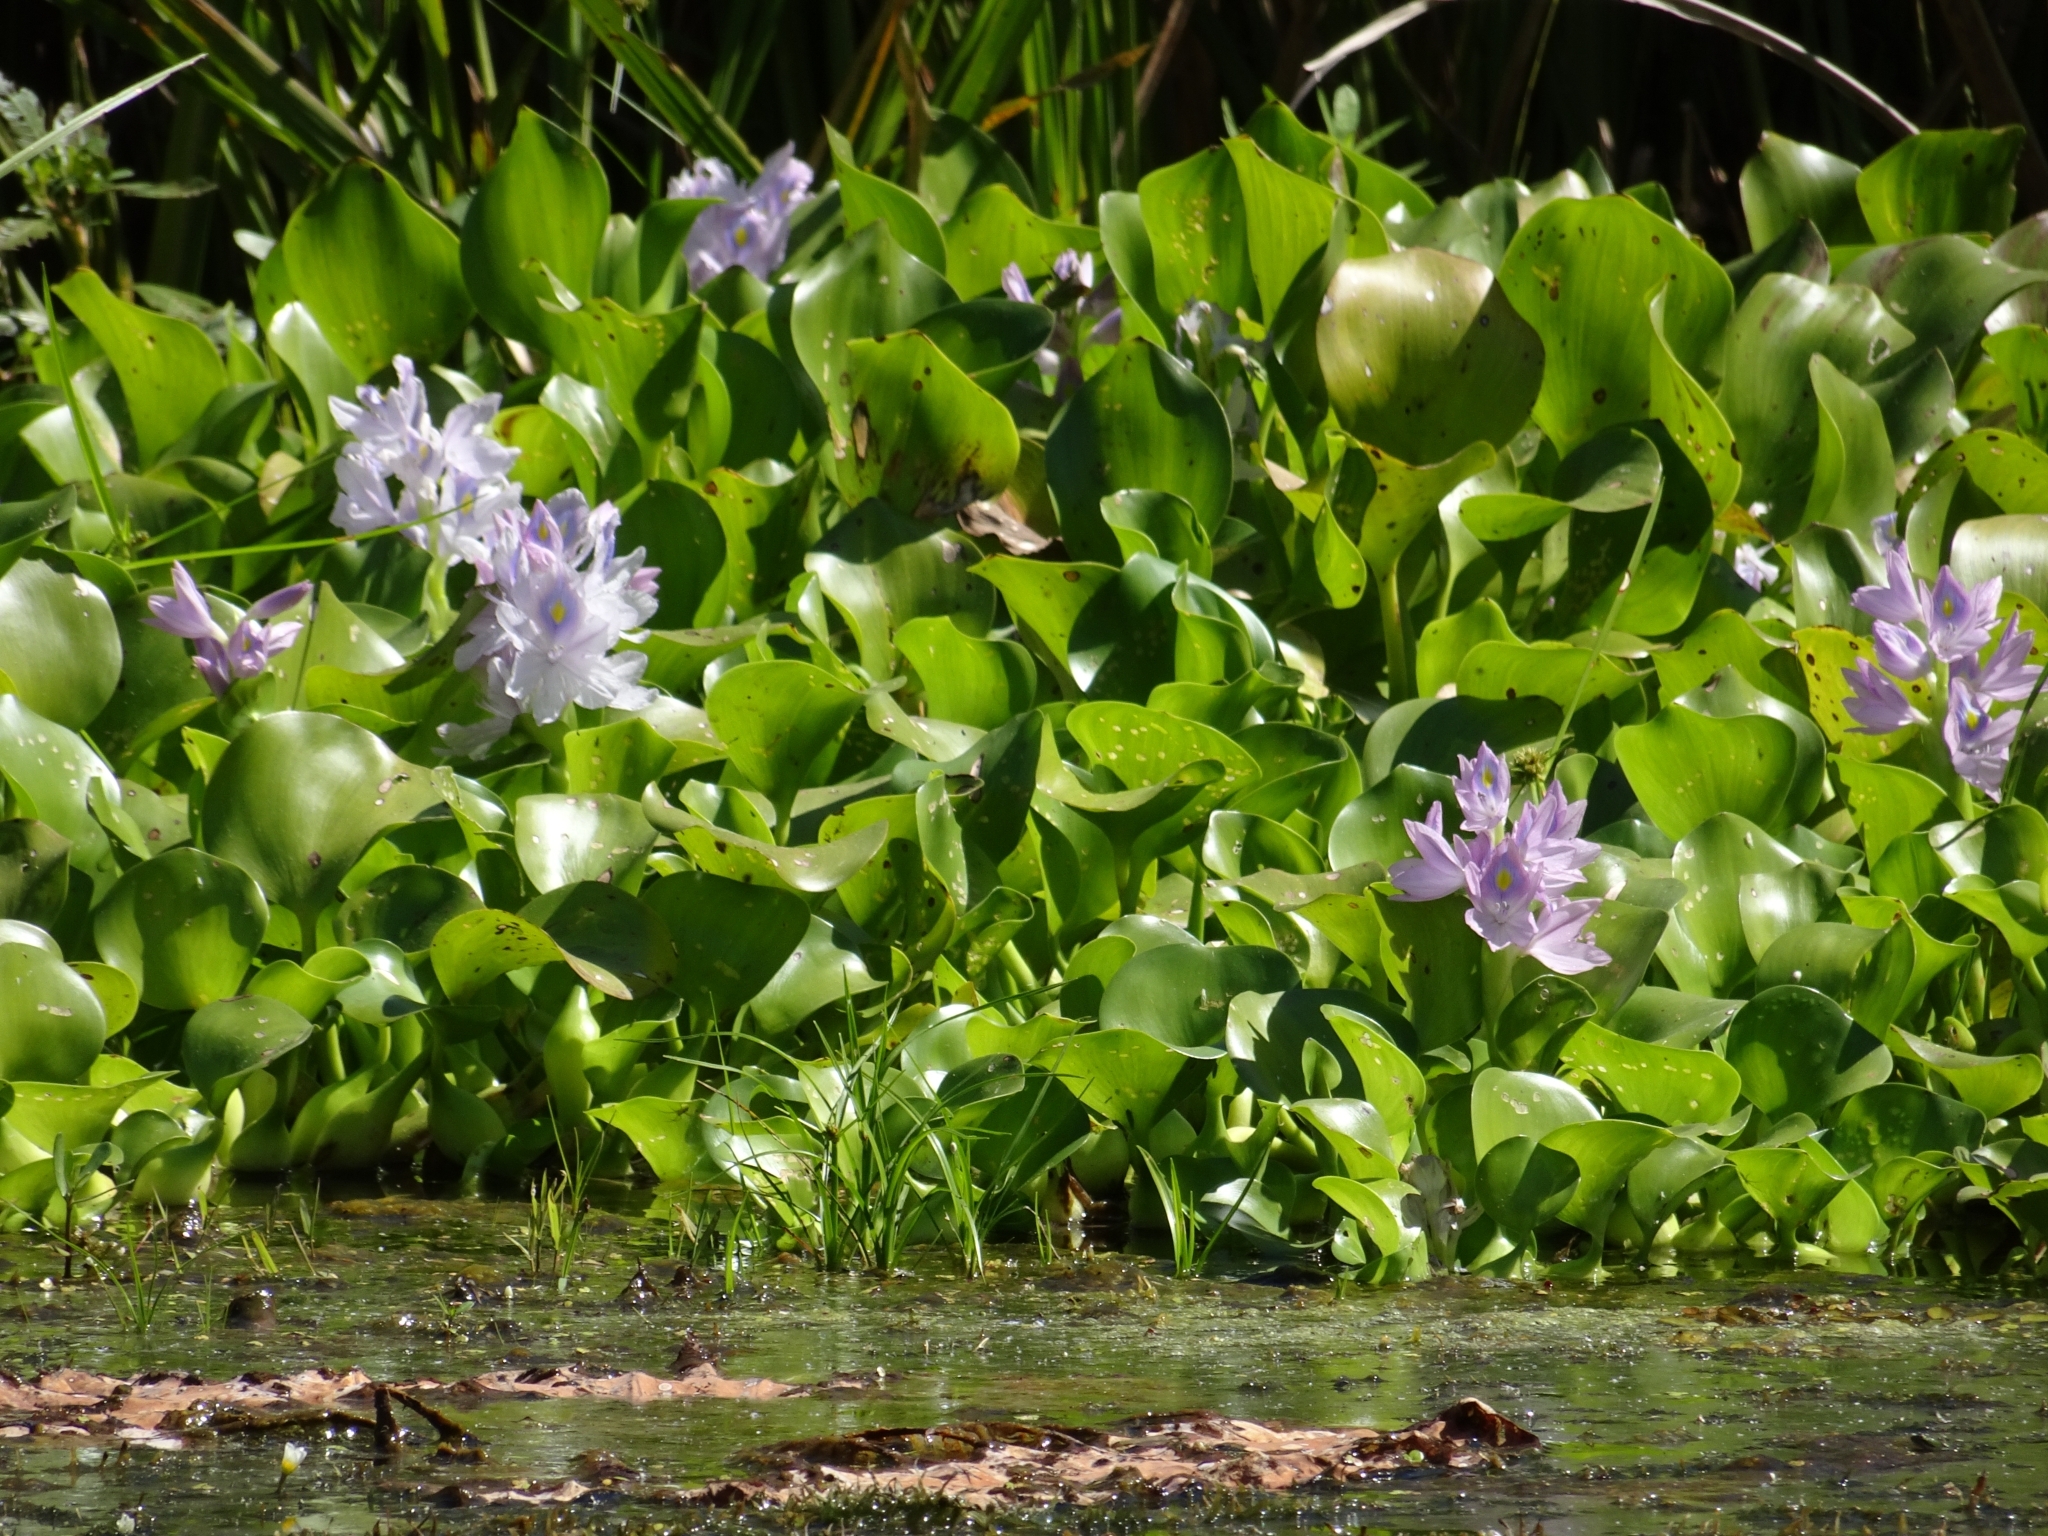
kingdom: Plantae
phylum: Tracheophyta
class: Liliopsida
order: Commelinales
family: Pontederiaceae
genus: Pontederia
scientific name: Pontederia crassipes
